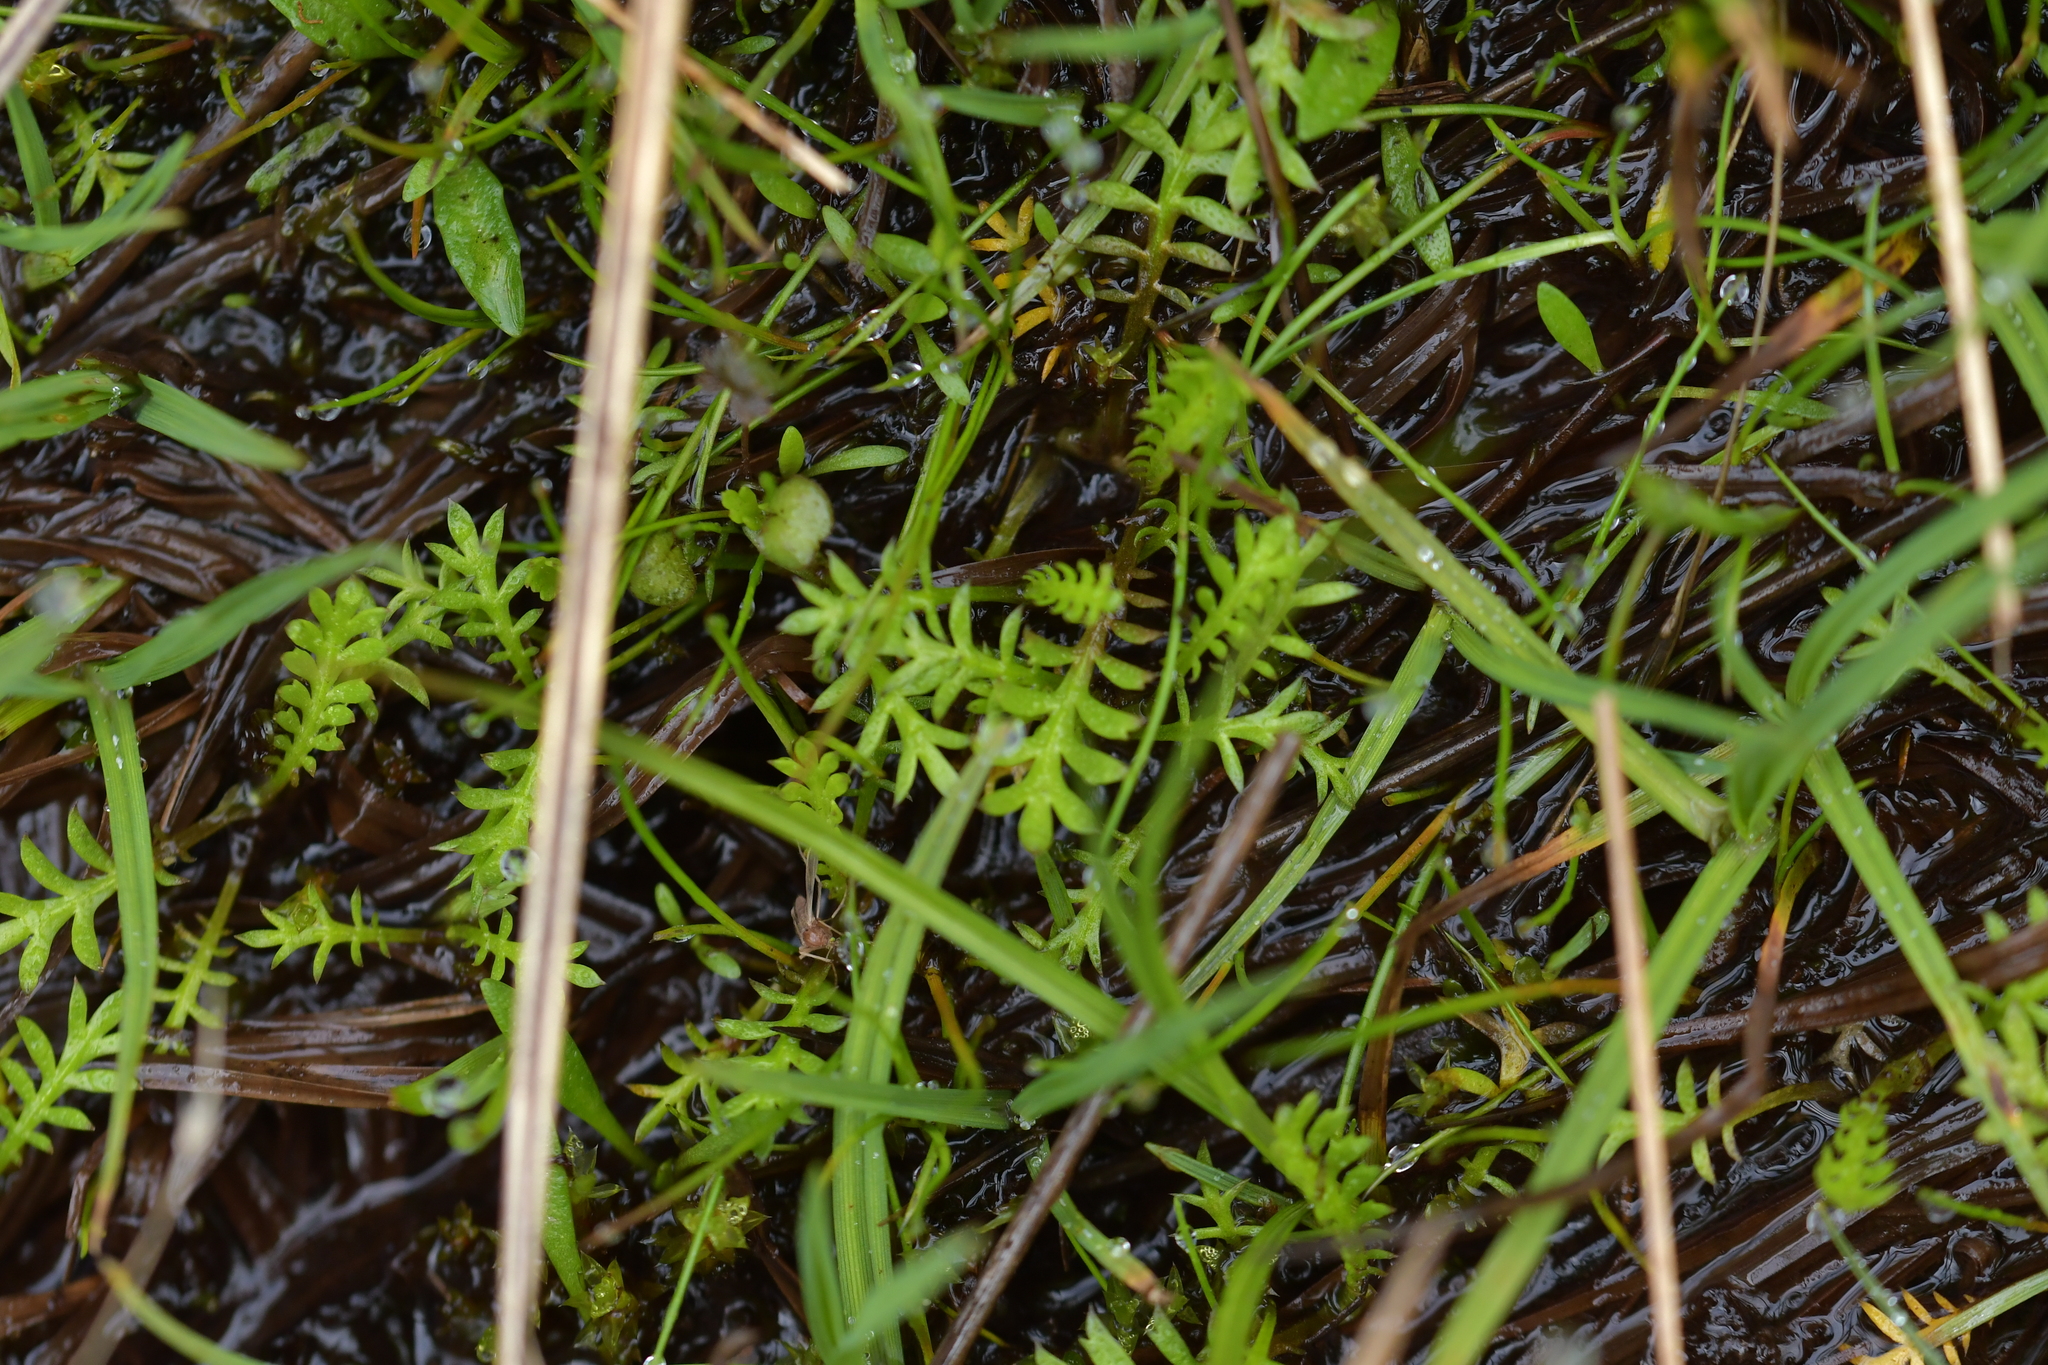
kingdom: Plantae
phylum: Tracheophyta
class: Magnoliopsida
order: Asterales
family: Asteraceae
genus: Leptinella
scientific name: Leptinella squalida
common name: New zealand brass-buttons
